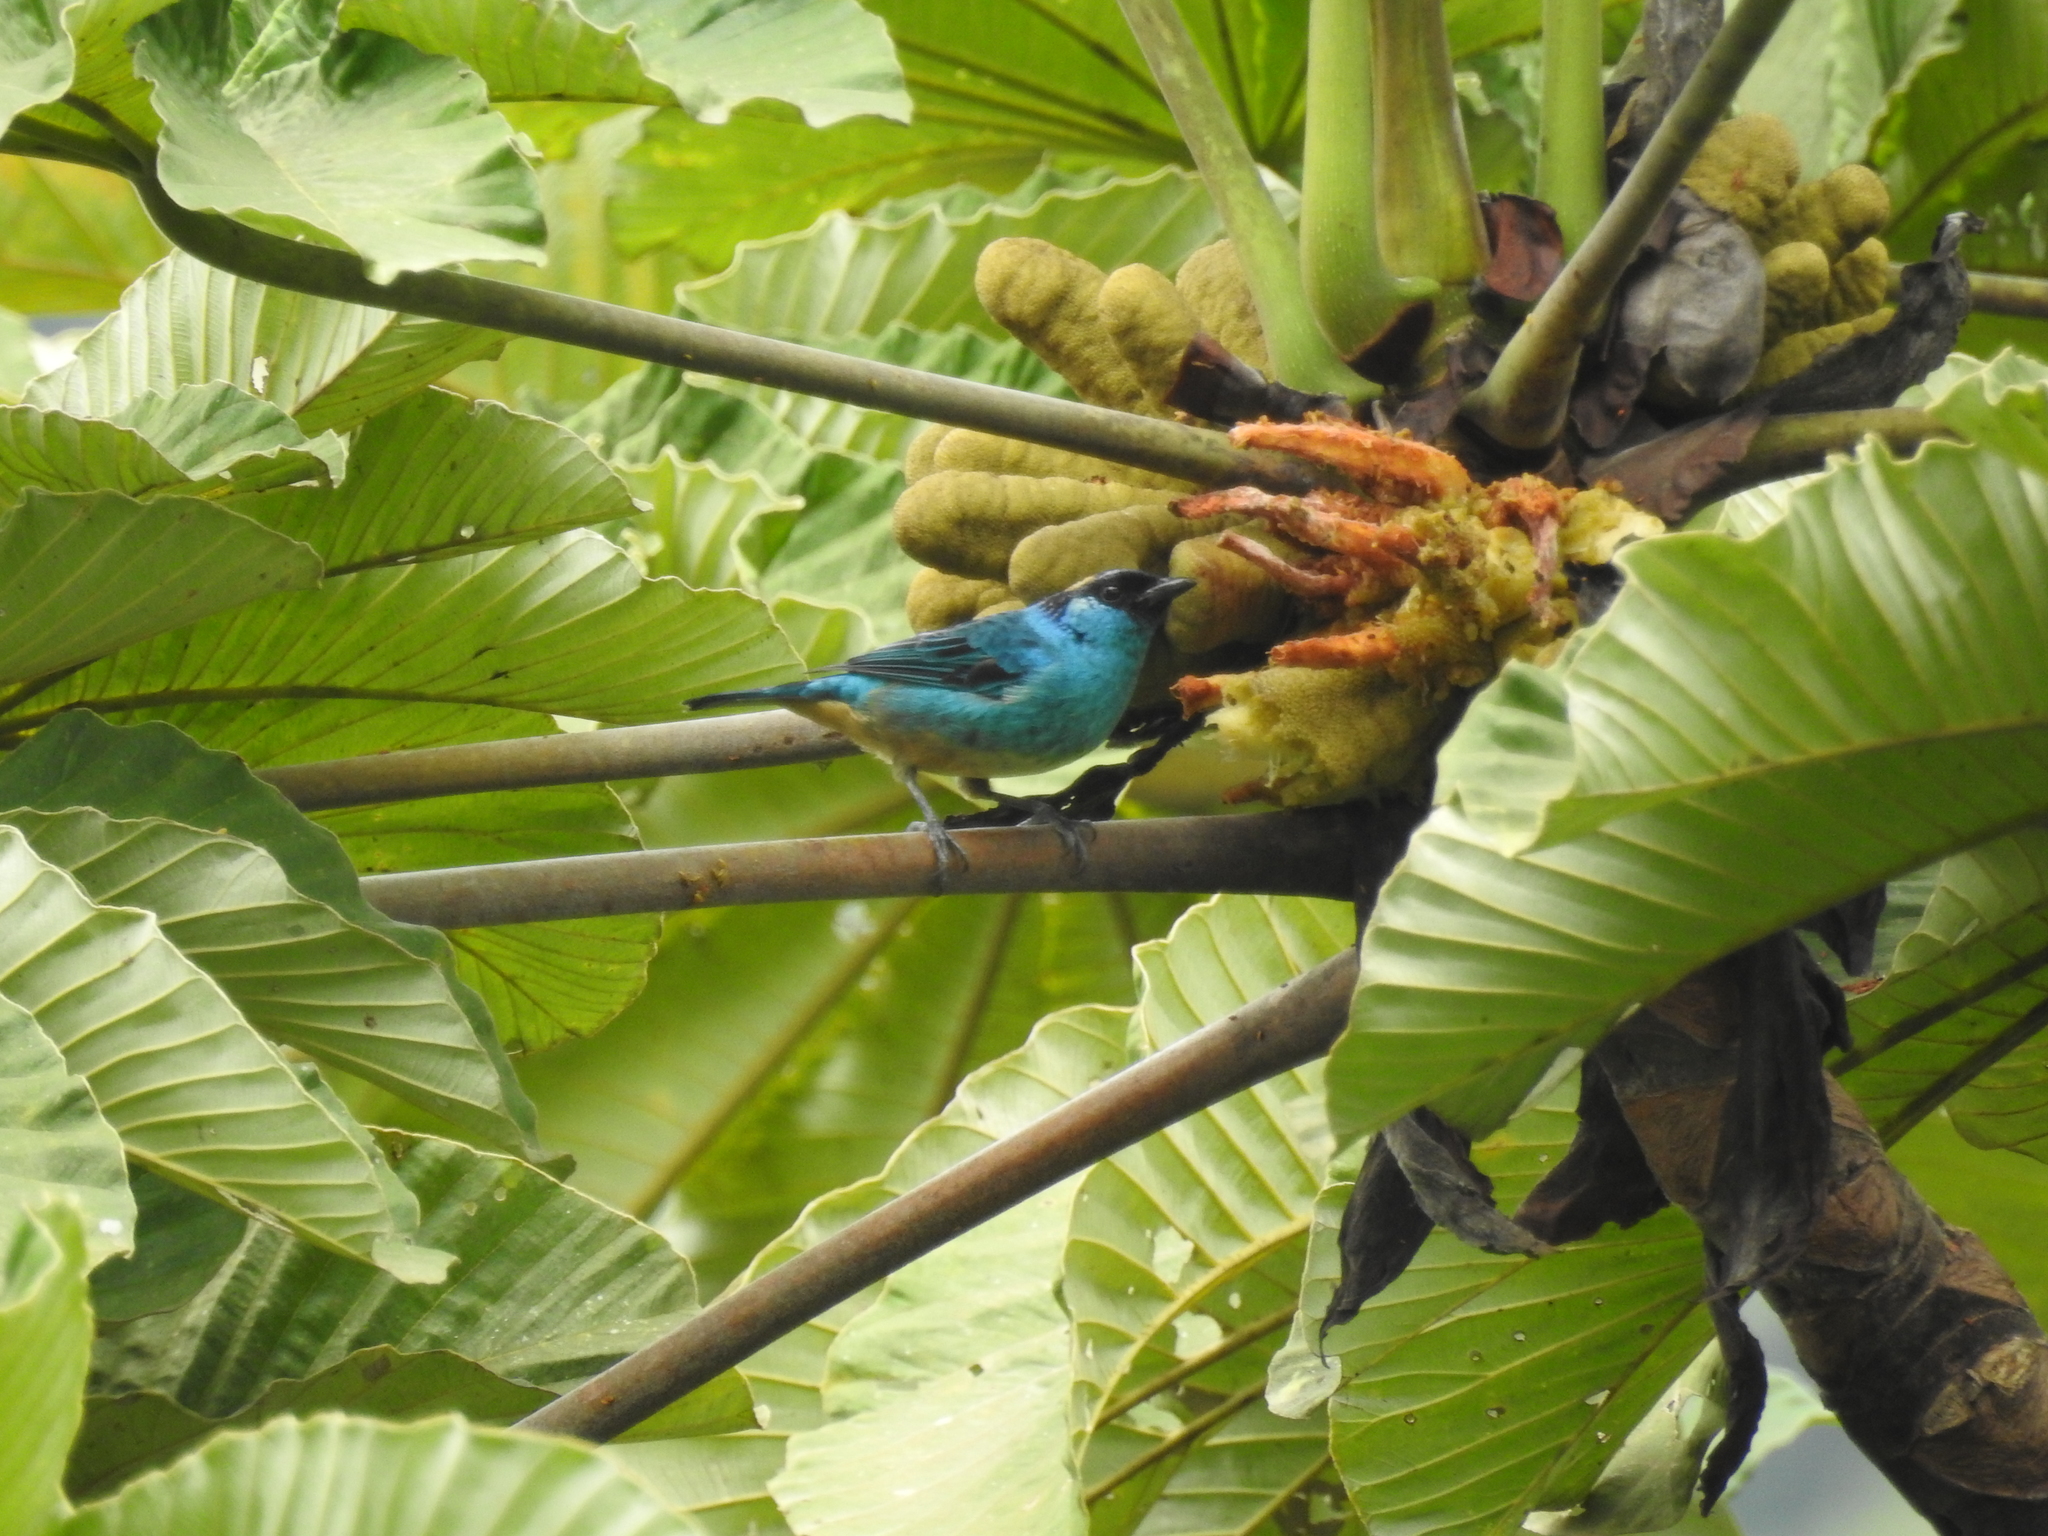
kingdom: Animalia
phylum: Chordata
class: Aves
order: Passeriformes
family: Thraupidae
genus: Chalcothraupis
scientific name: Chalcothraupis ruficervix
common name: Golden-naped tanager
